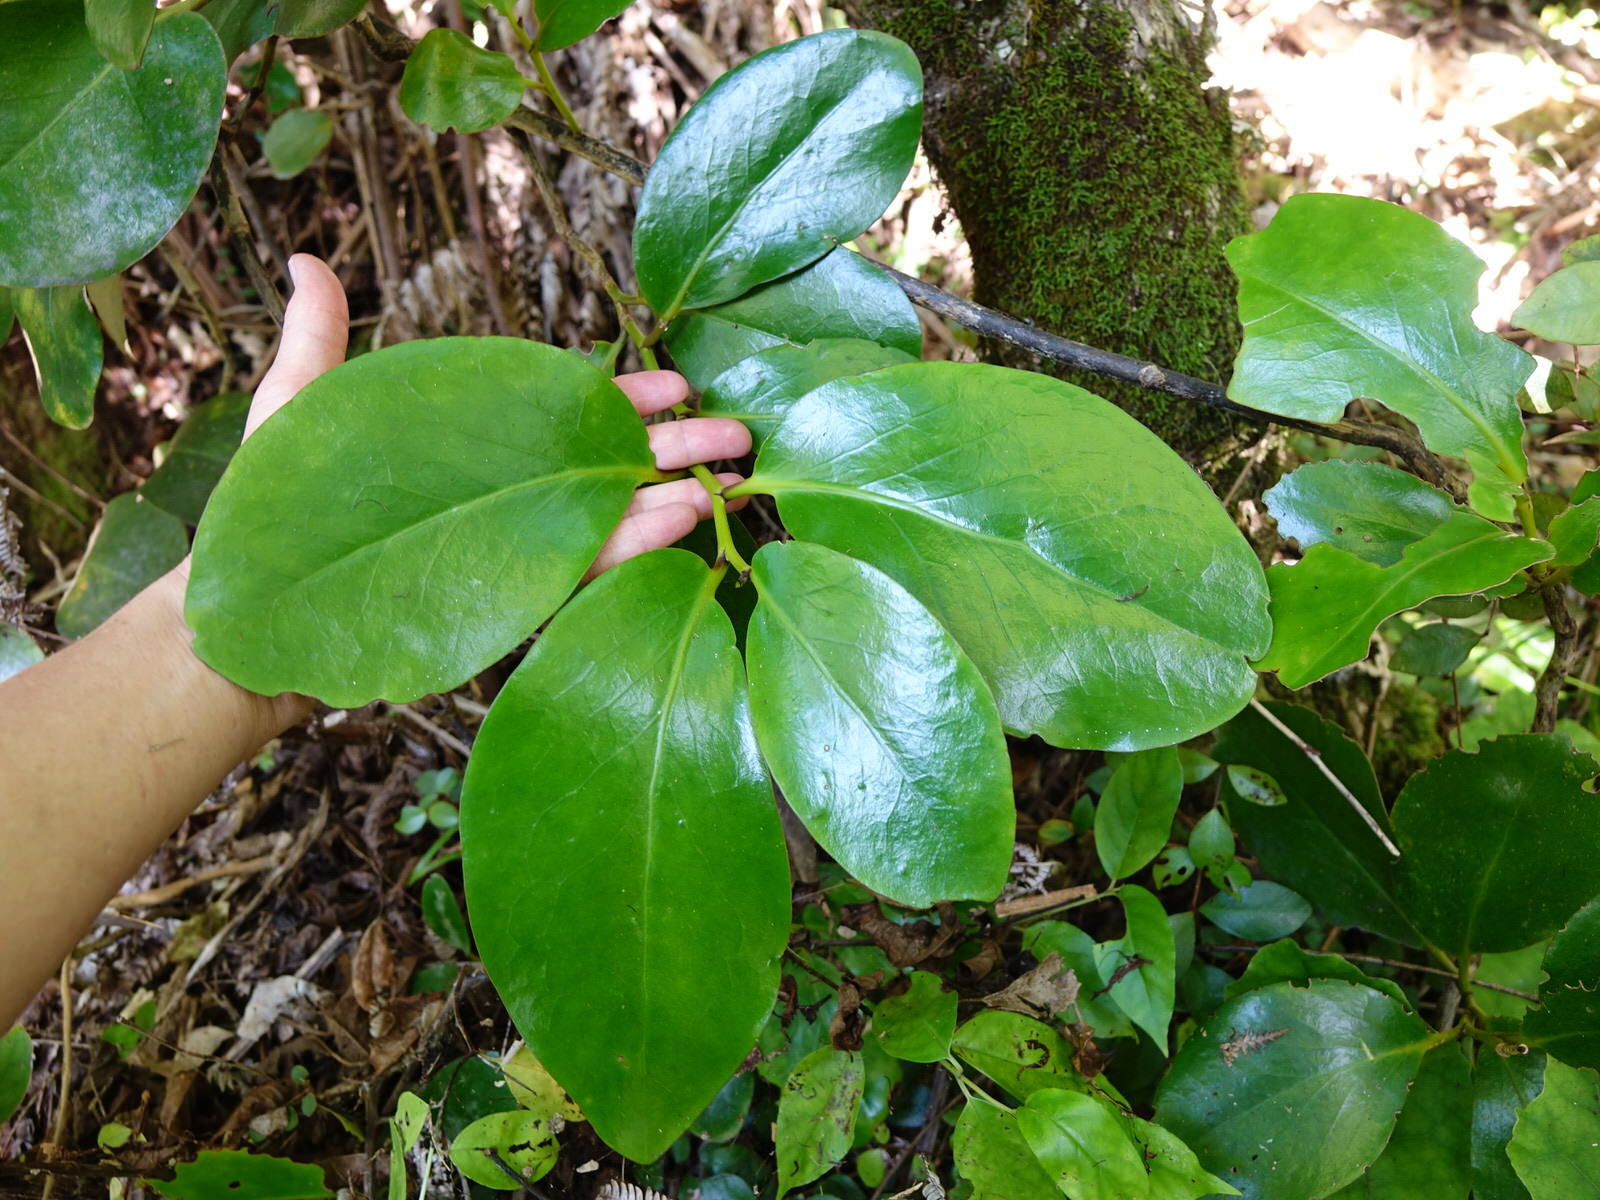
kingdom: Plantae
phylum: Tracheophyta
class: Magnoliopsida
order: Apiales
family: Griseliniaceae
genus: Griselinia
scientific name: Griselinia lucida
